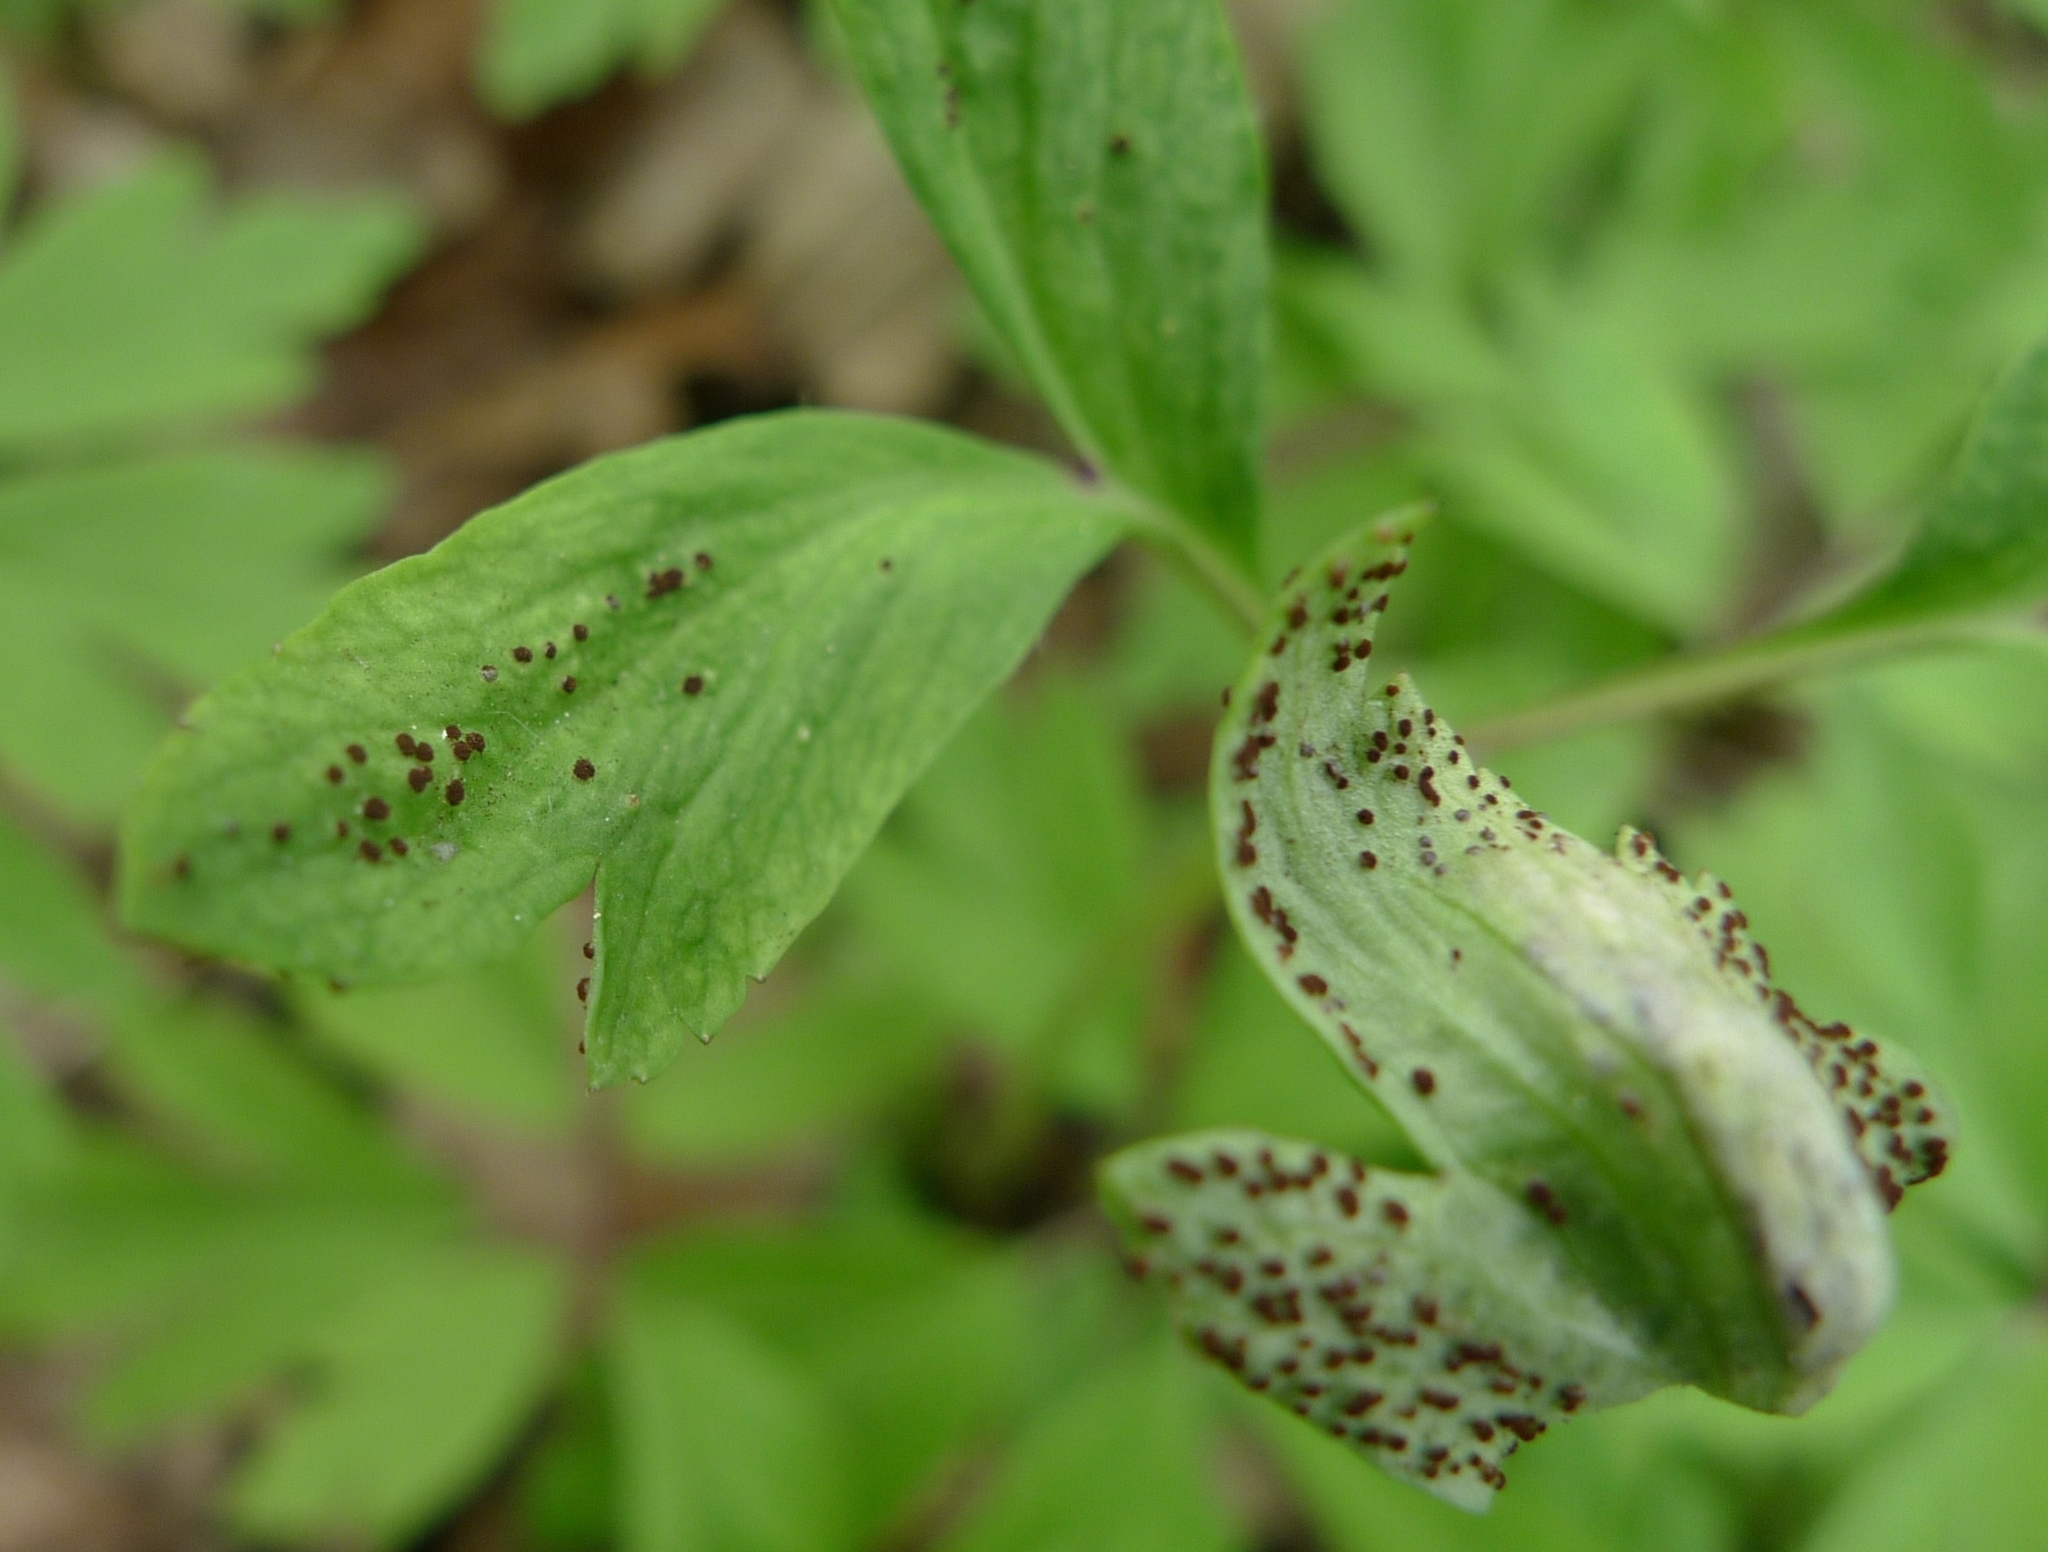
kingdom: Fungi
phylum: Basidiomycota
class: Pucciniomycetes
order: Pucciniales
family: Tranzscheliaceae
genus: Tranzschelia
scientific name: Tranzschelia anemones
